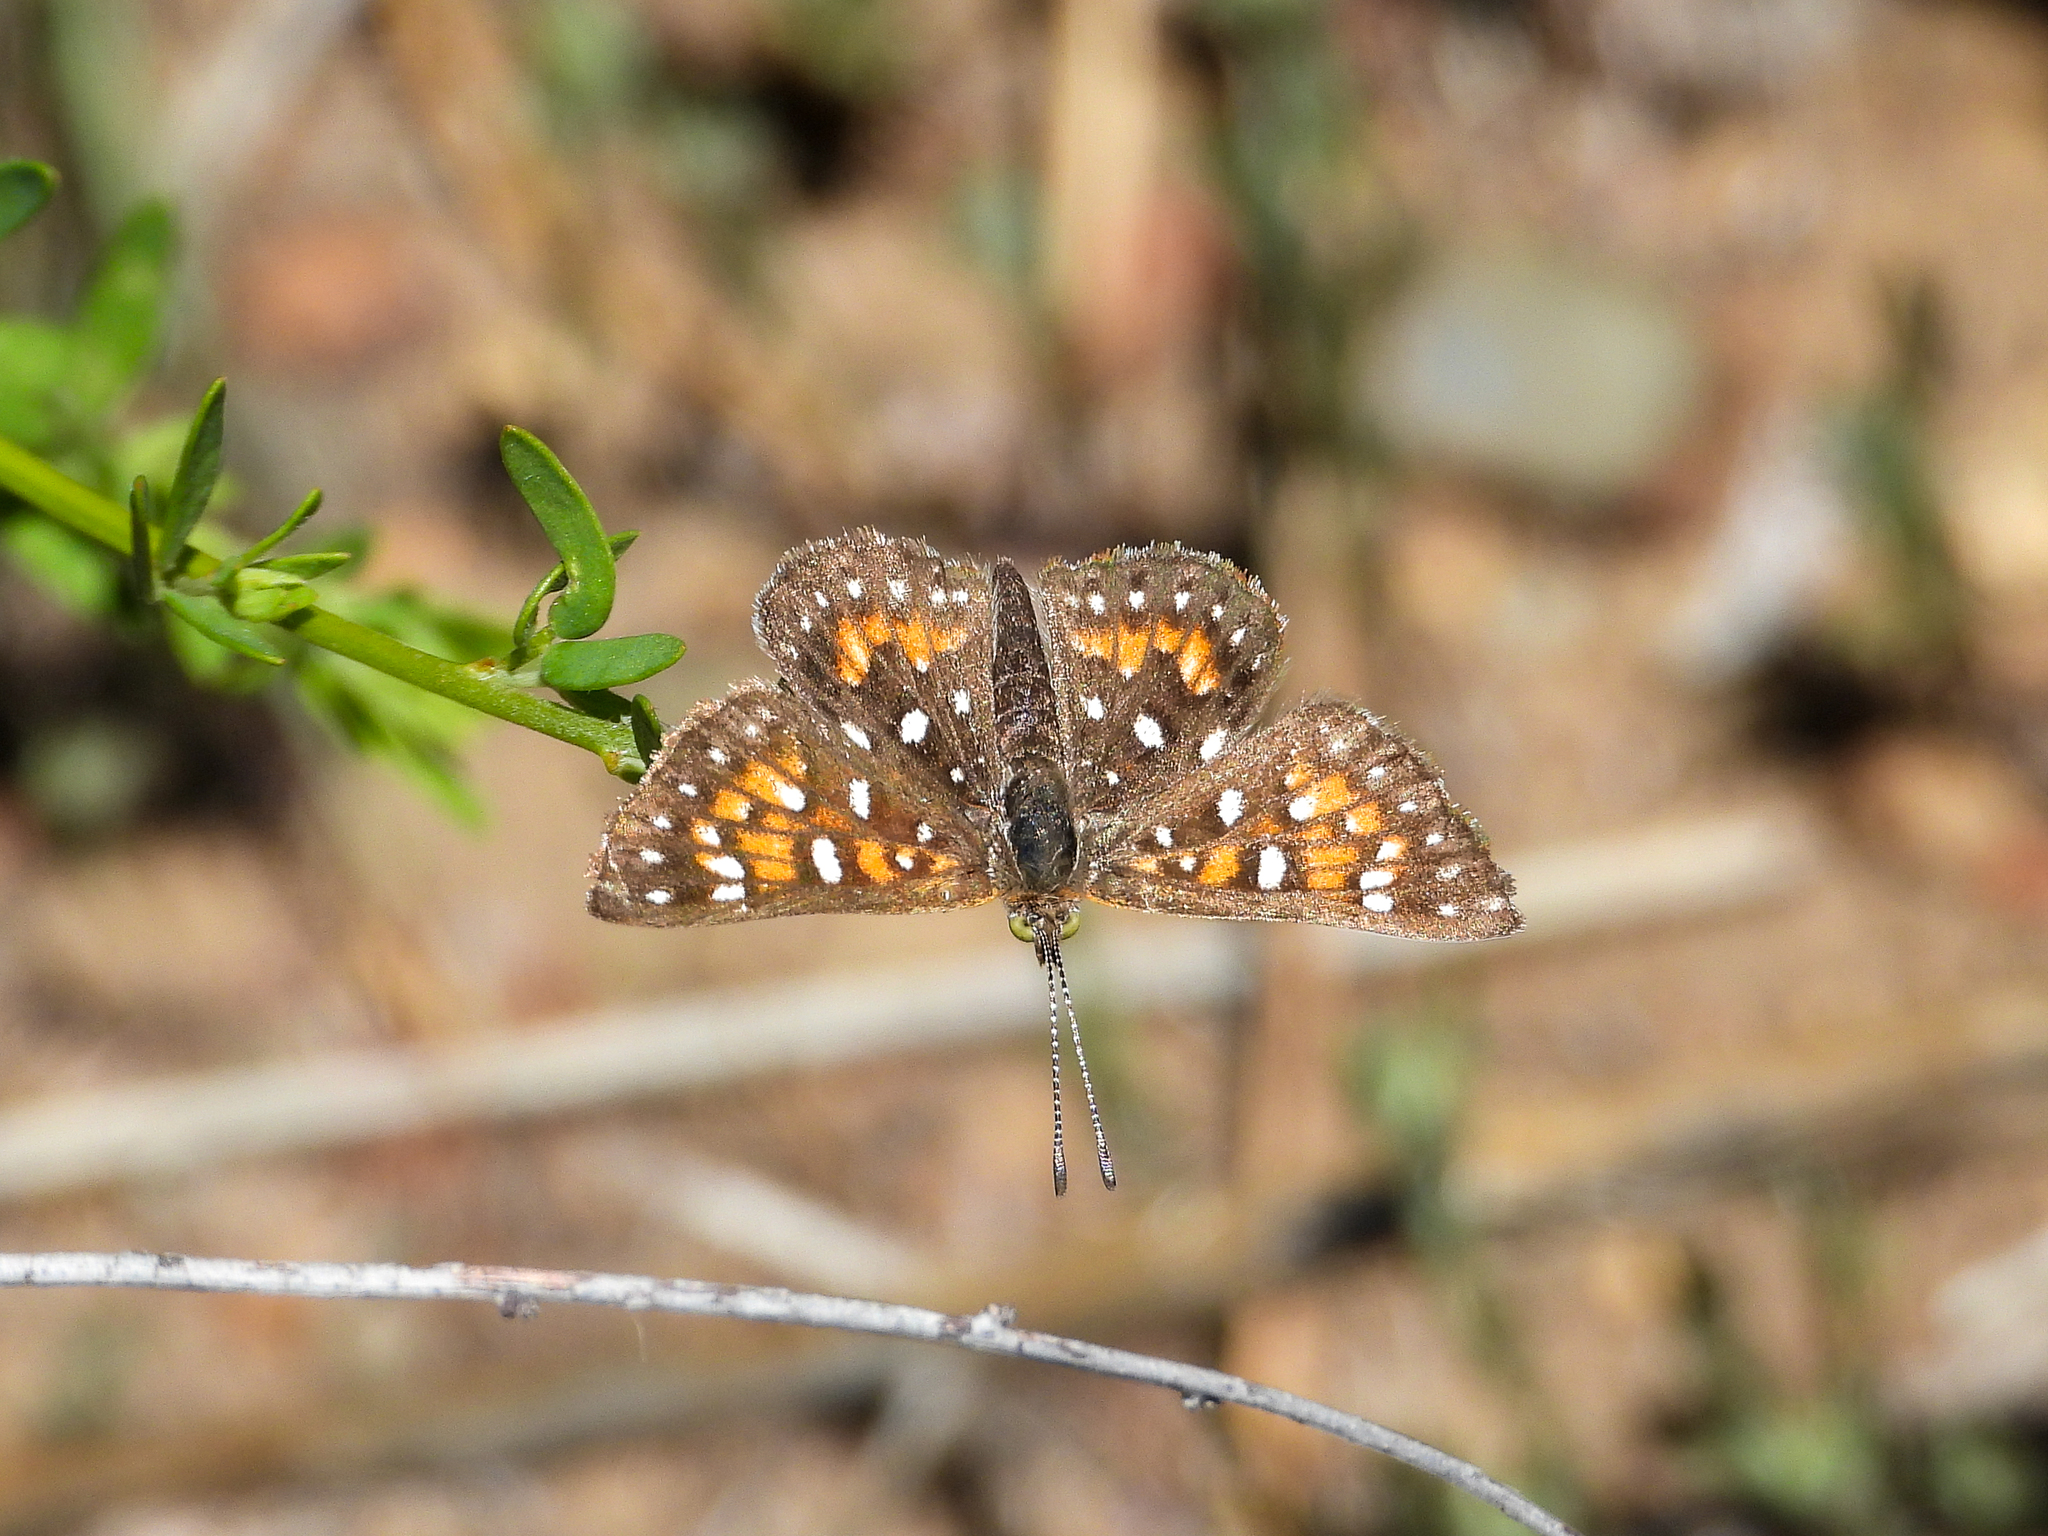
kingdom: Animalia
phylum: Arthropoda
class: Insecta
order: Lepidoptera
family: Riodinidae
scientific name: Riodinidae
